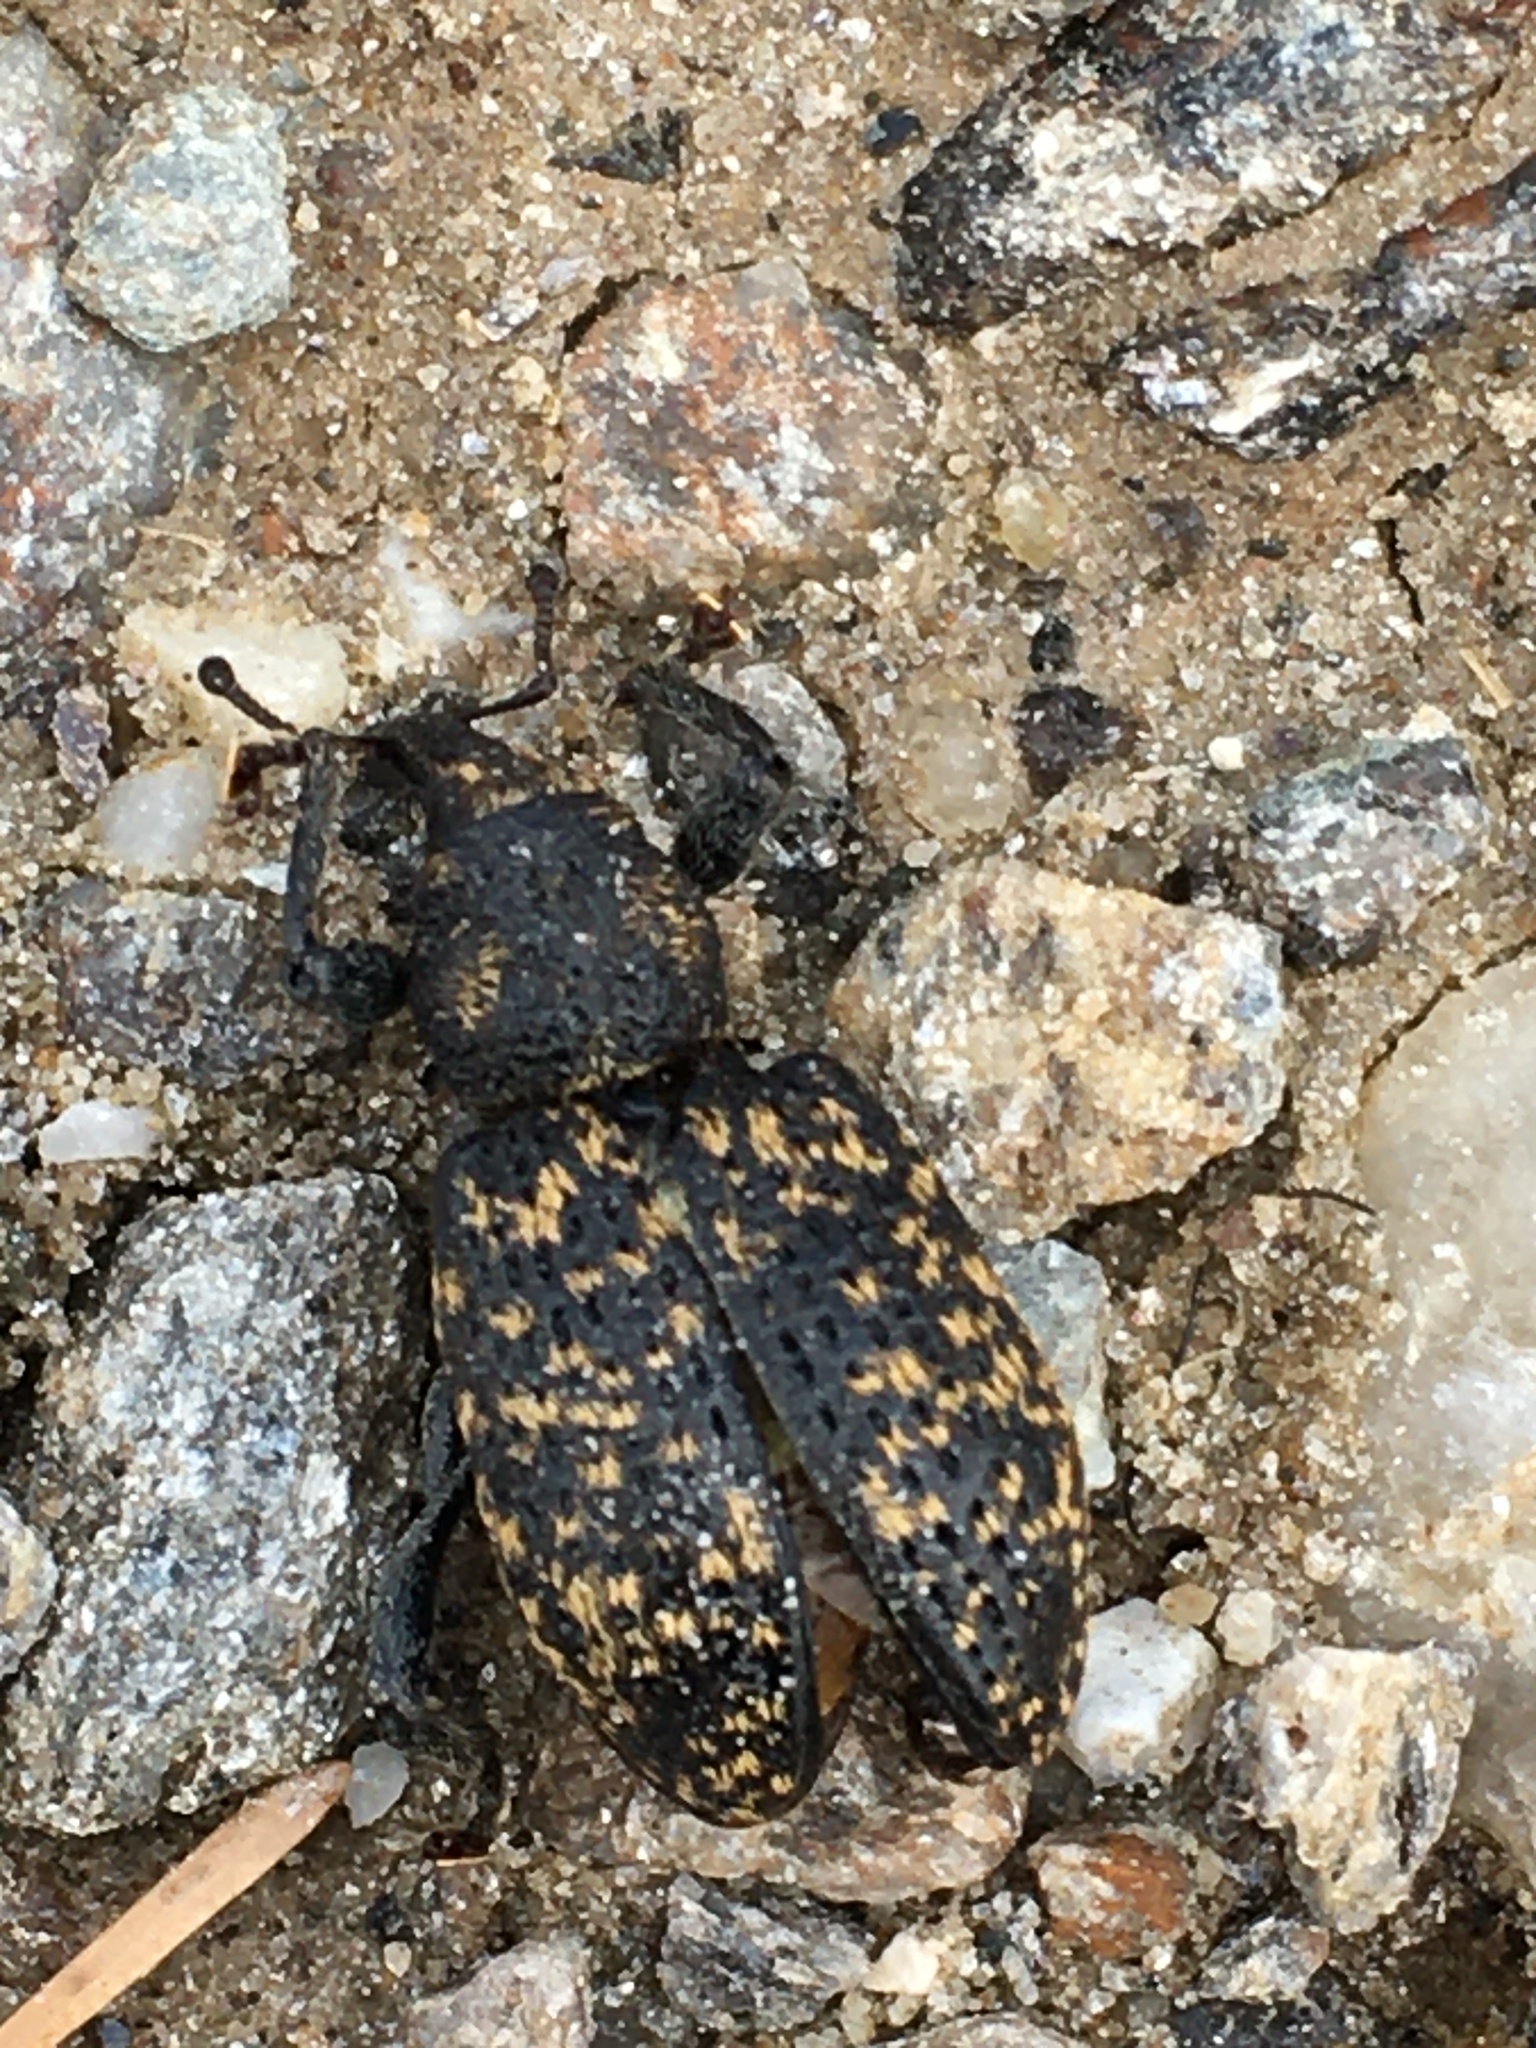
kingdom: Animalia
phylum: Arthropoda
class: Insecta
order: Coleoptera
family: Curculionidae
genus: Otiorhynchus
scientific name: Otiorhynchus sulcatus
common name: Black vine weevil
